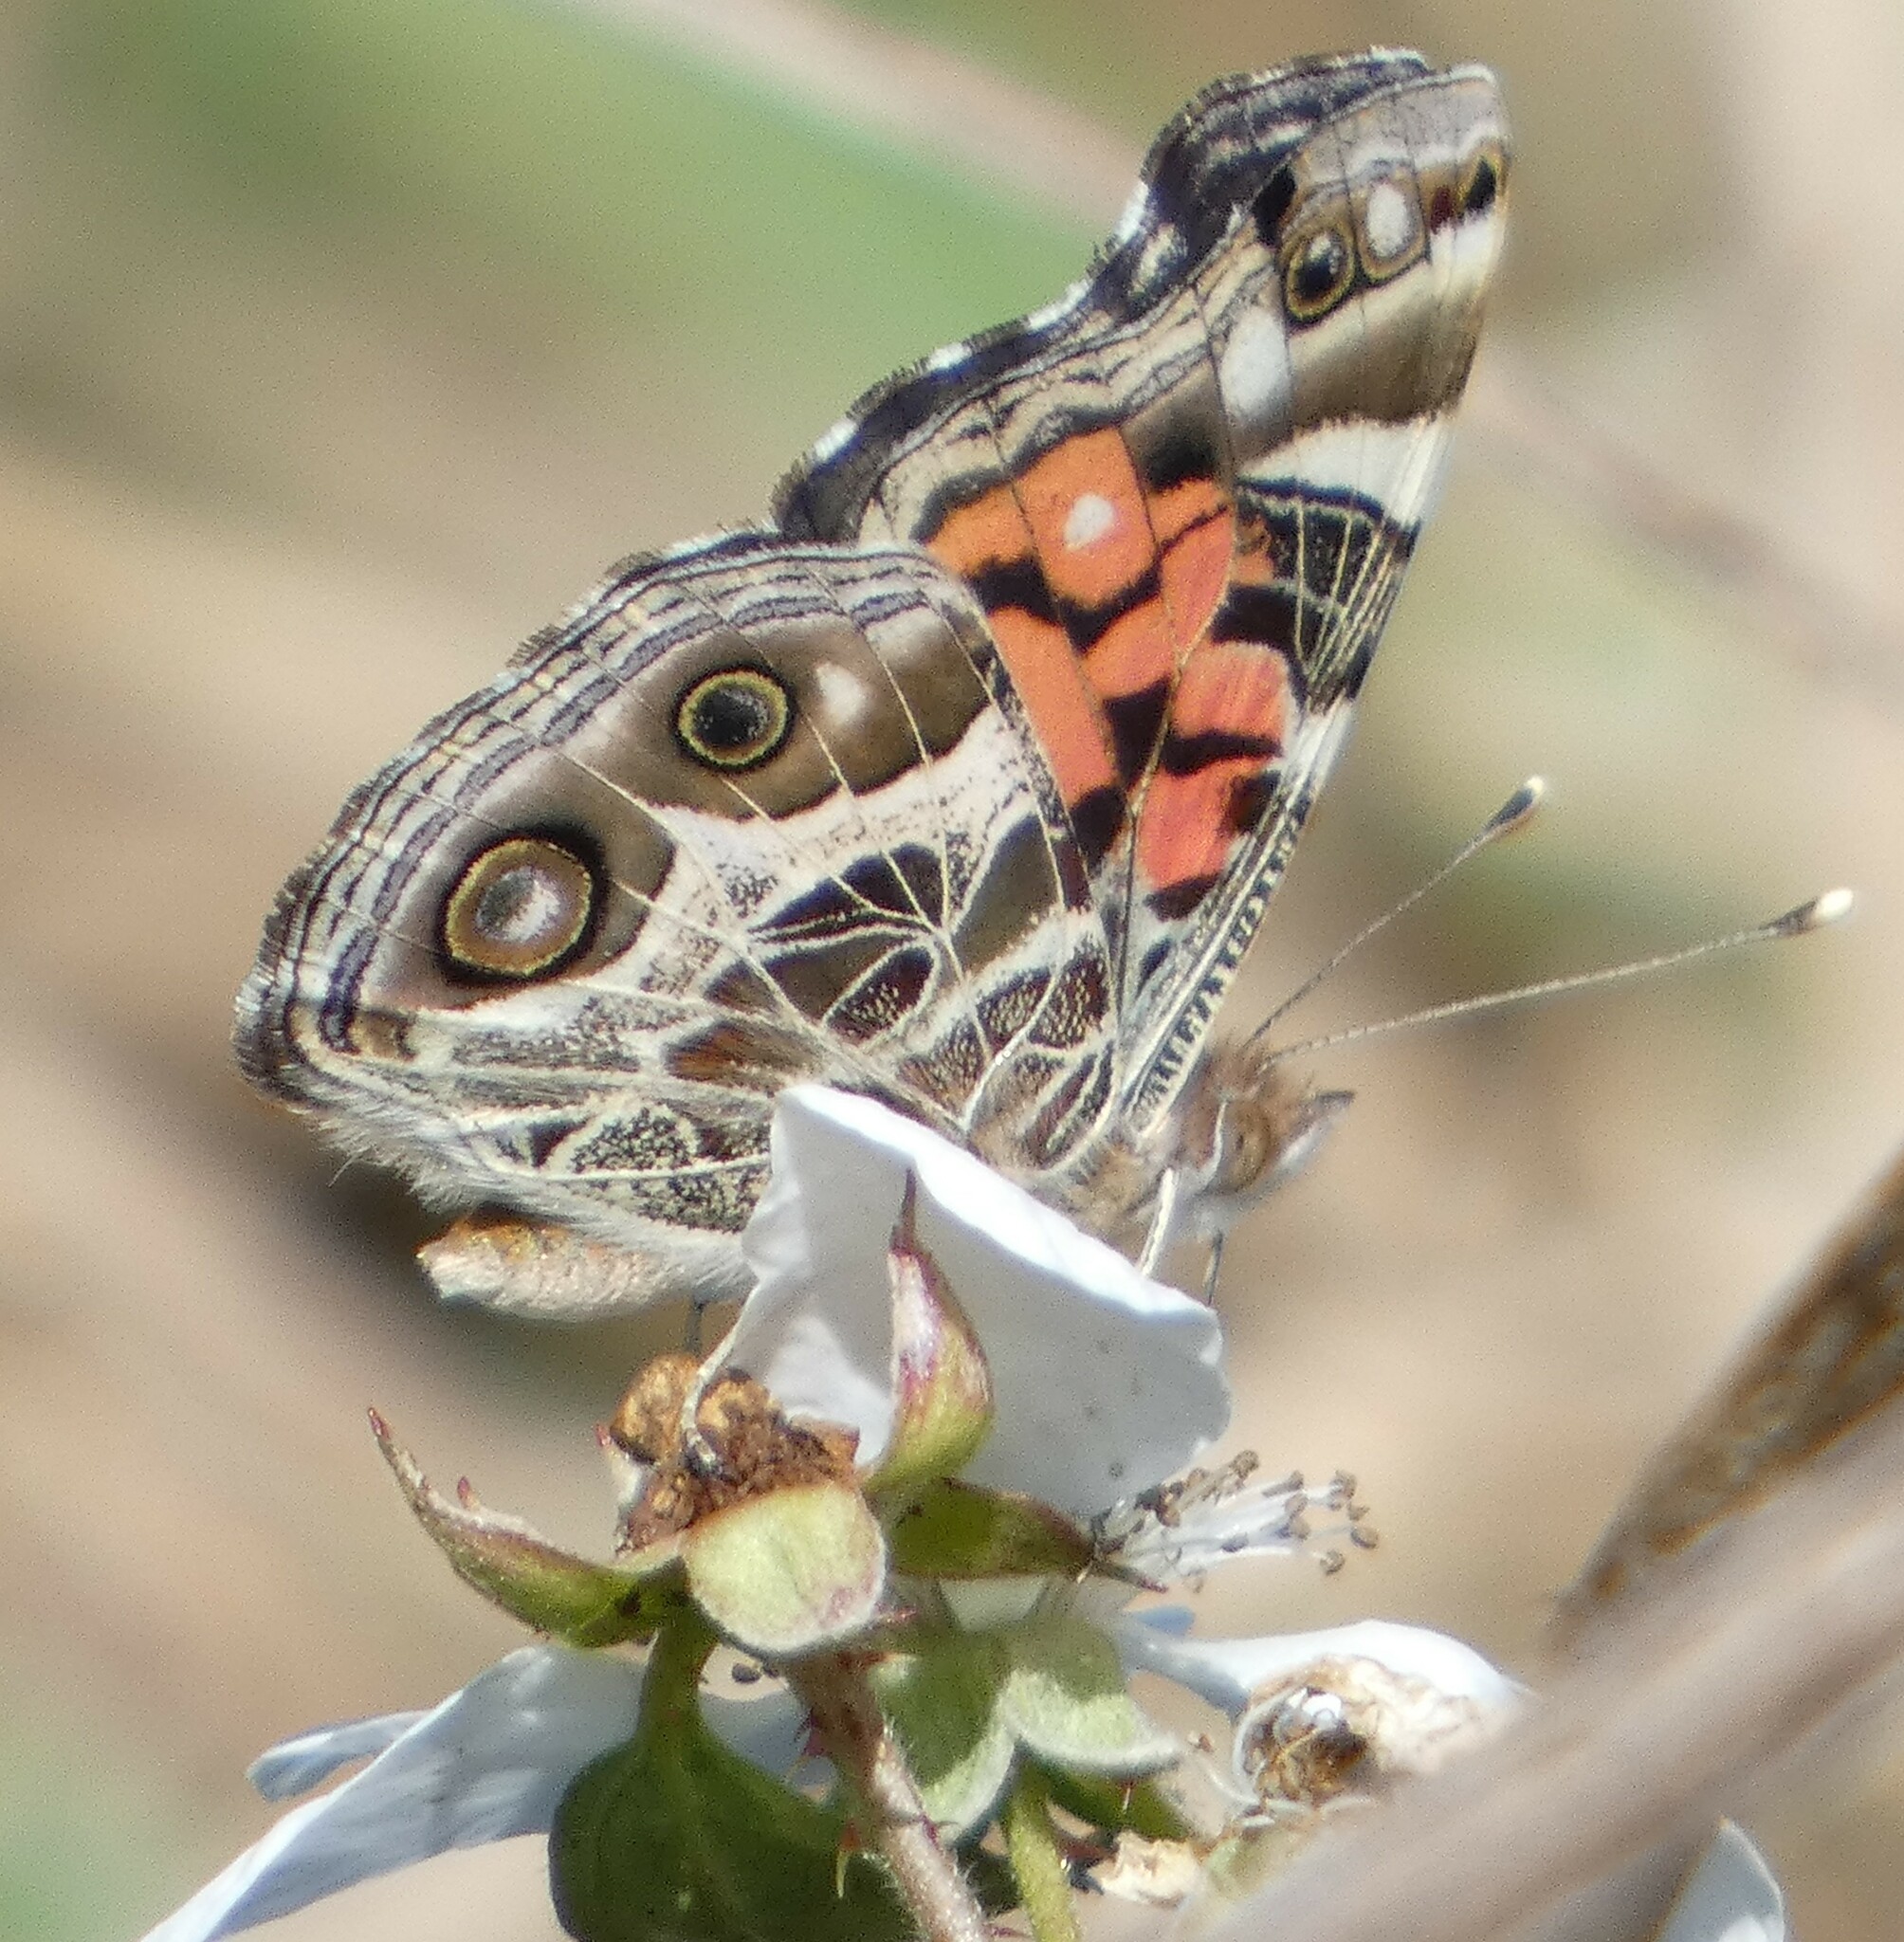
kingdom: Animalia
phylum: Arthropoda
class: Insecta
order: Lepidoptera
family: Nymphalidae
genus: Vanessa
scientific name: Vanessa virginiensis
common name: American lady
